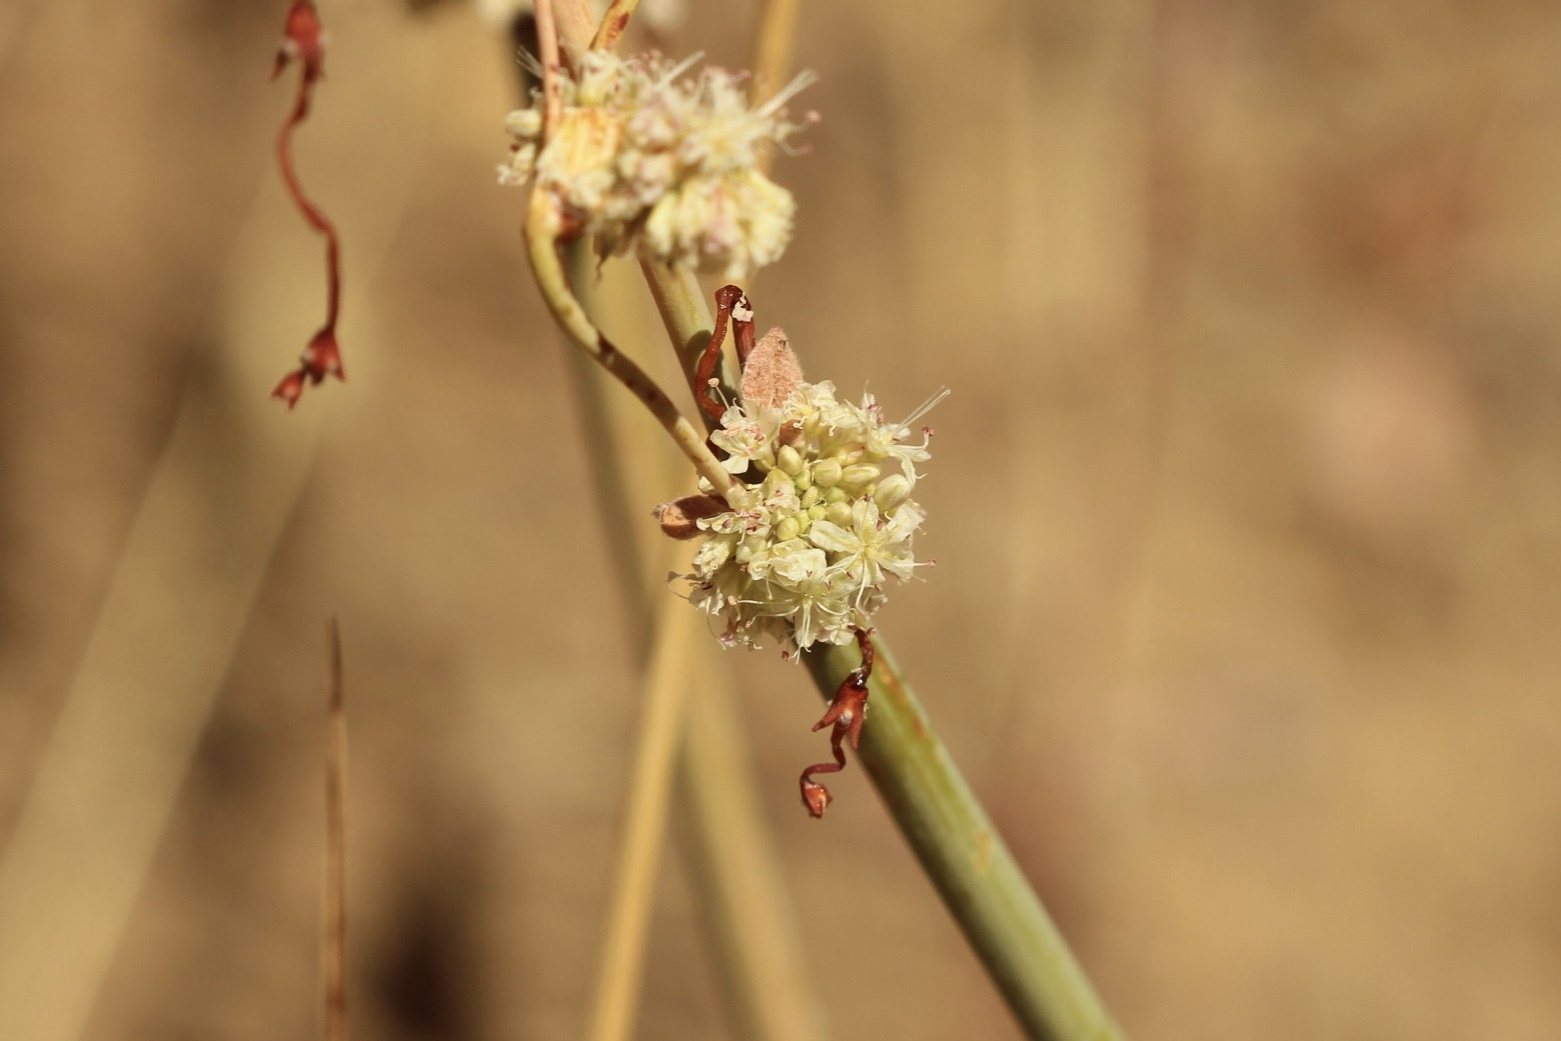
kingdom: Plantae
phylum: Tracheophyta
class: Magnoliopsida
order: Caryophyllales
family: Polygonaceae
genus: Eriogonum
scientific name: Eriogonum nudum
